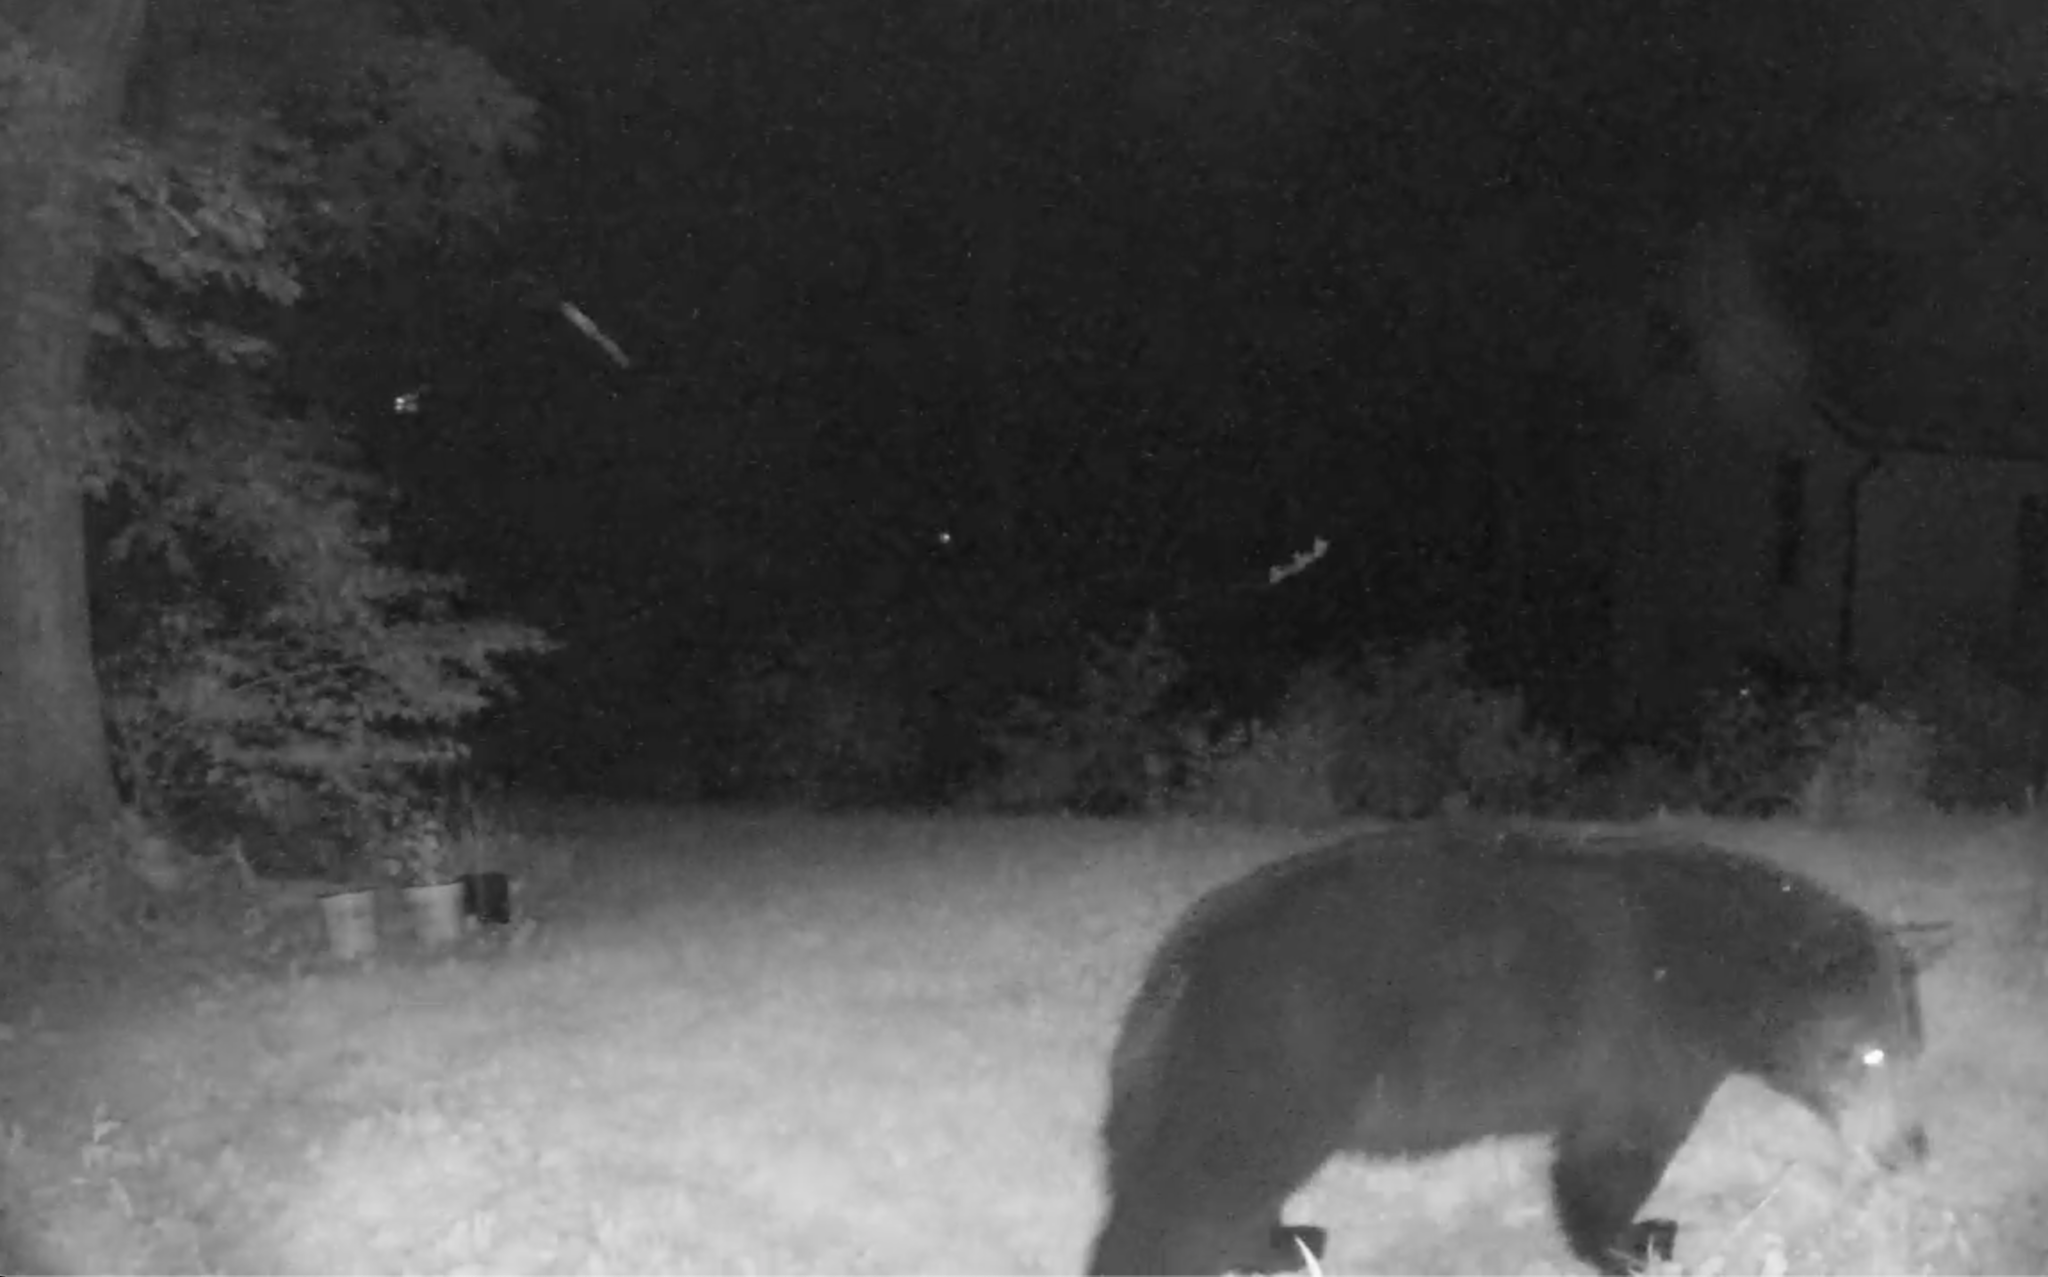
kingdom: Animalia
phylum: Chordata
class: Mammalia
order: Carnivora
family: Ursidae
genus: Ursus
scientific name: Ursus americanus
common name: American black bear
